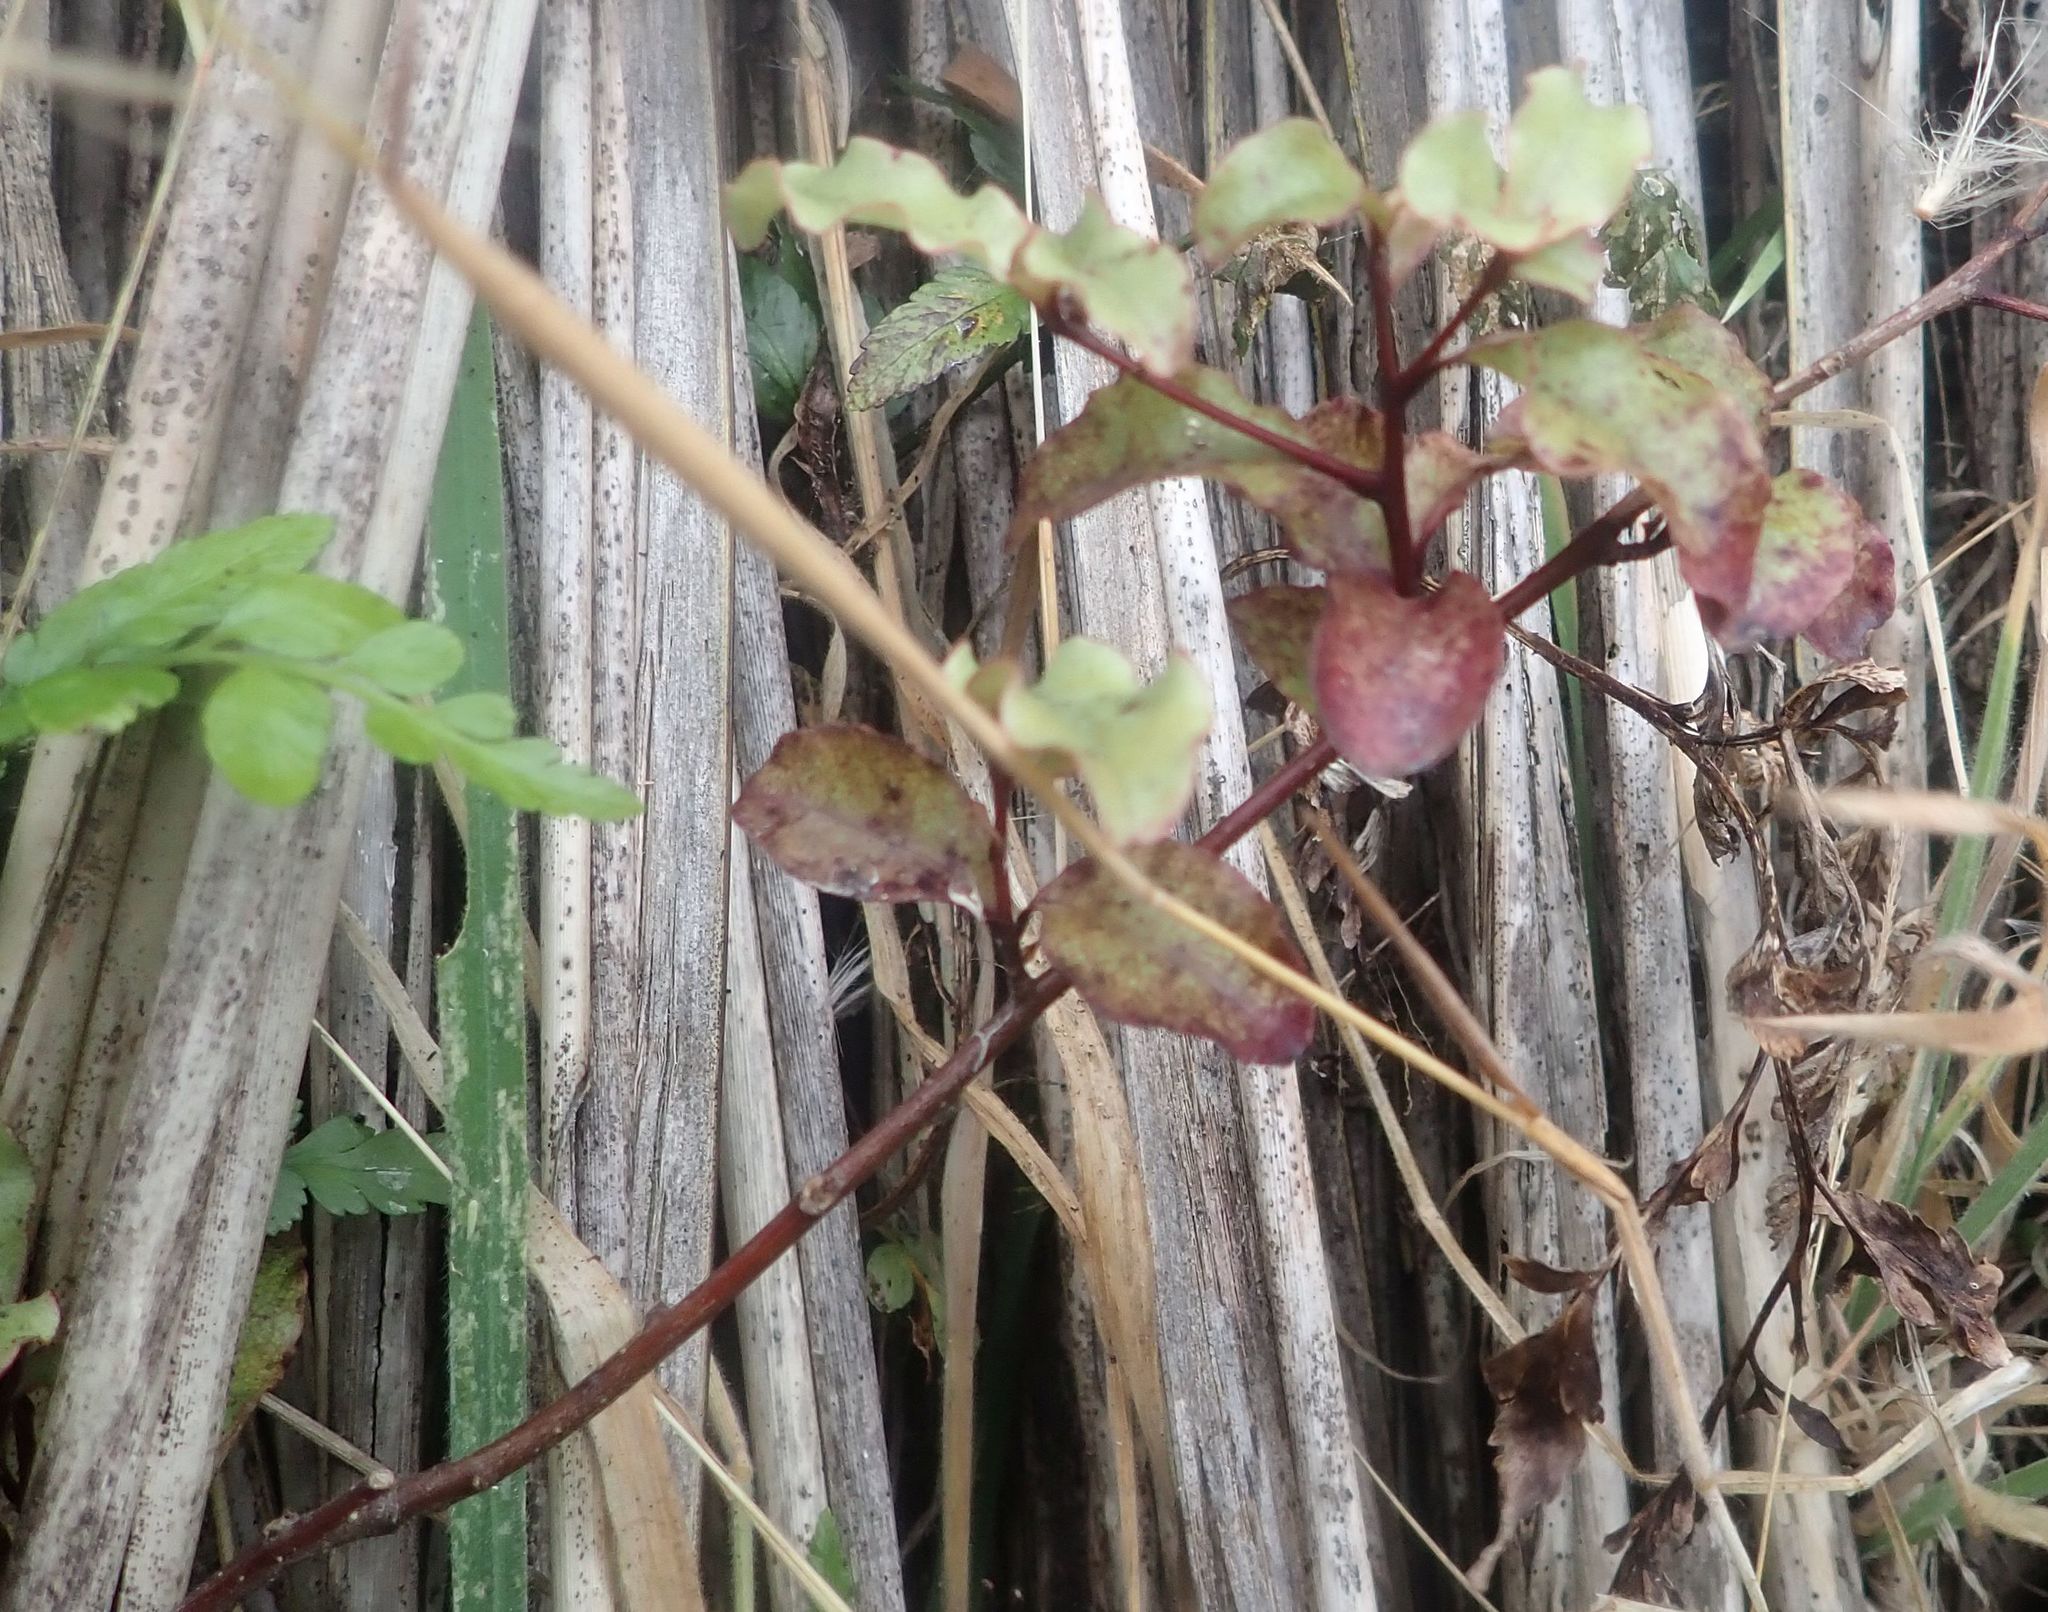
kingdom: Plantae
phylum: Tracheophyta
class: Magnoliopsida
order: Ericales
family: Primulaceae
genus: Myrsine
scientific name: Myrsine australis
